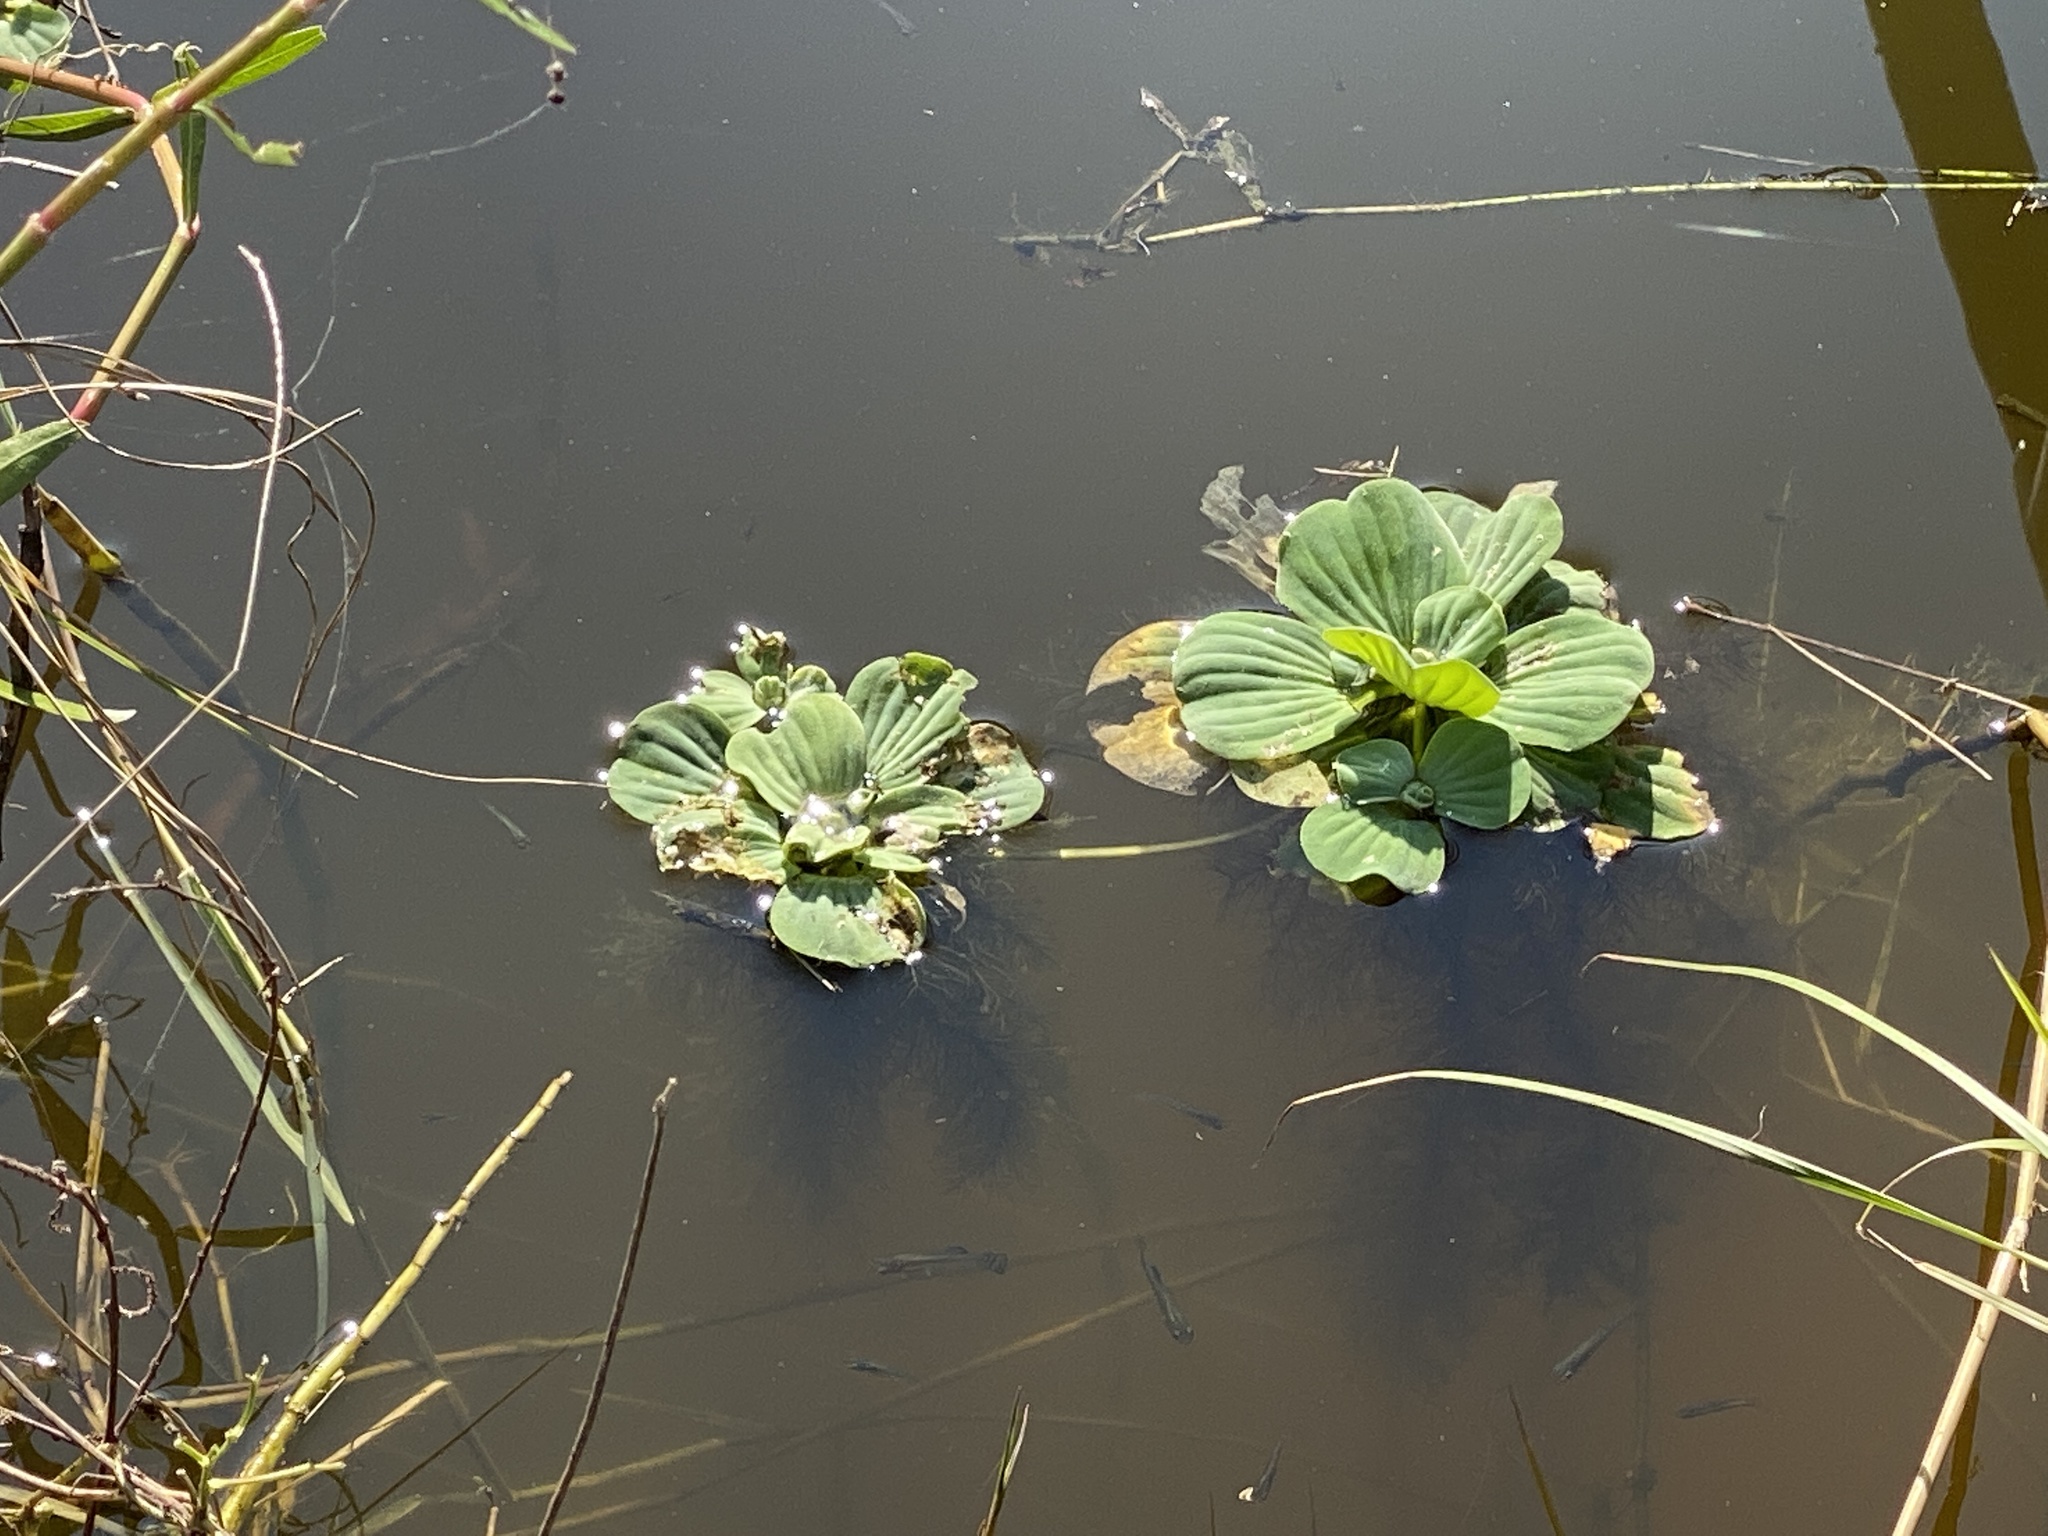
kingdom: Plantae
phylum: Tracheophyta
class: Liliopsida
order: Alismatales
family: Araceae
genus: Pistia
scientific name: Pistia stratiotes
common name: Water lettuce
